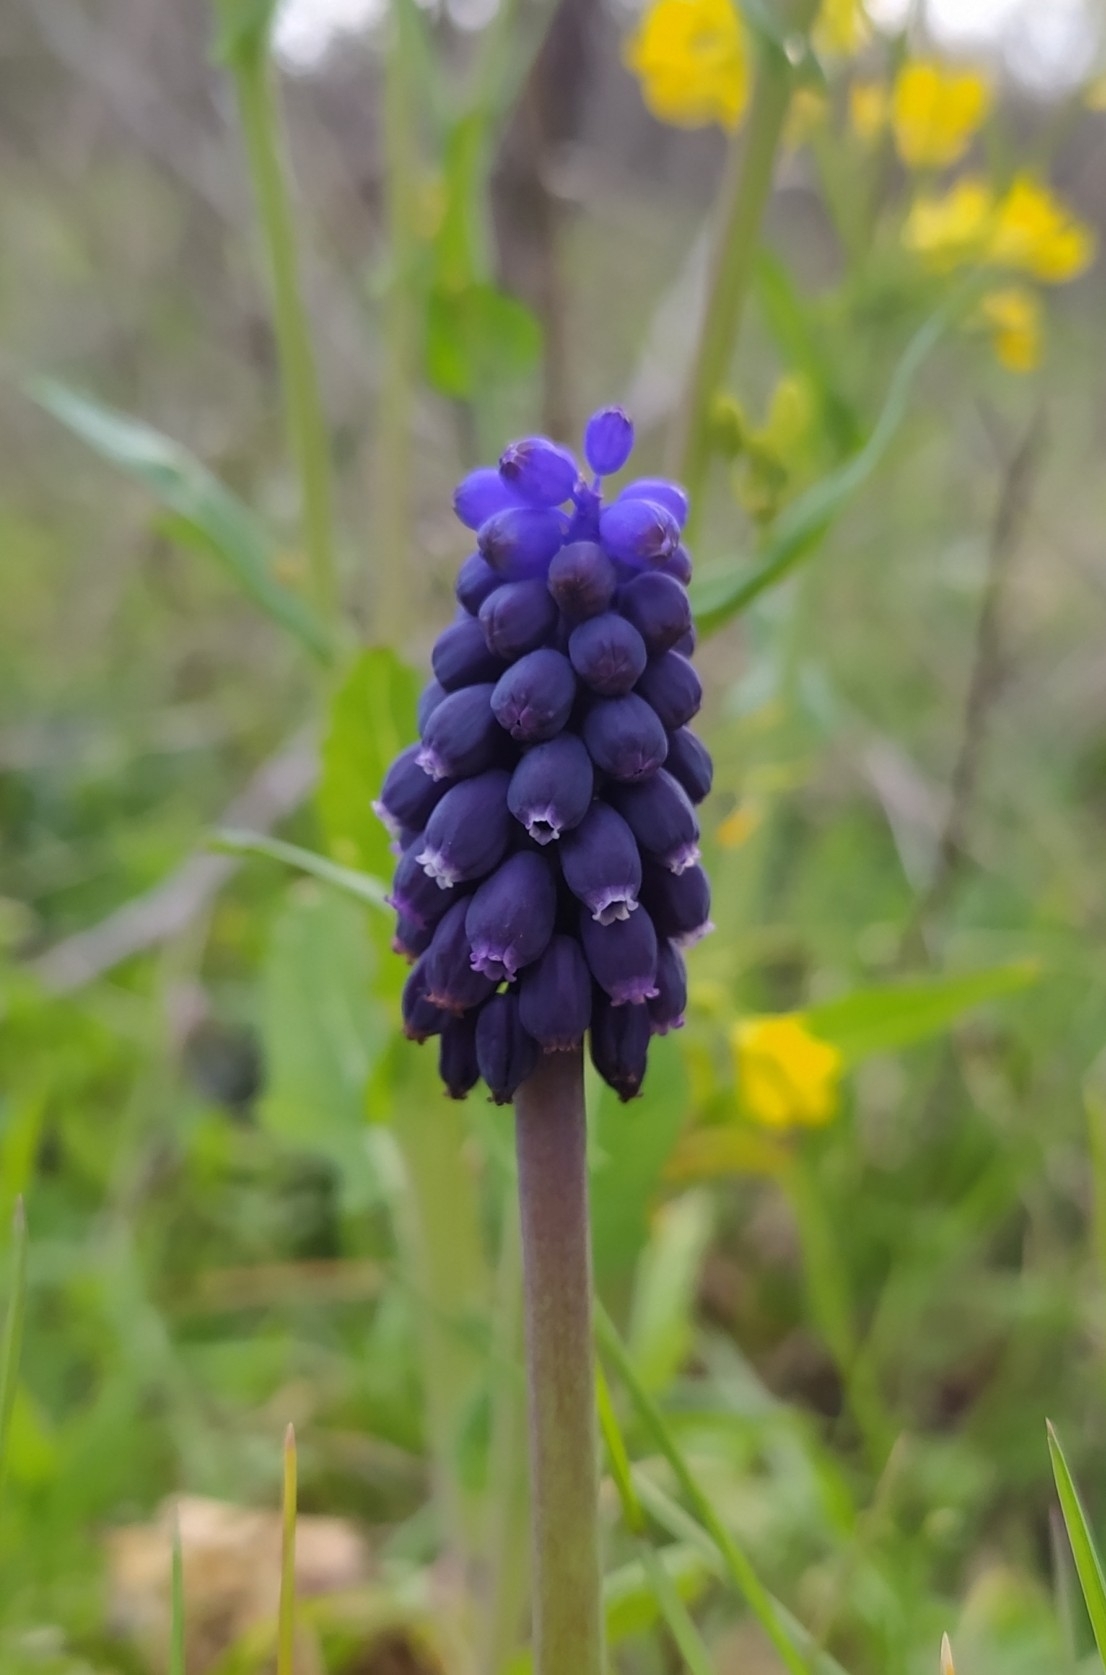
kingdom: Plantae
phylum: Tracheophyta
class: Liliopsida
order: Asparagales
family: Asparagaceae
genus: Muscari
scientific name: Muscari neglectum
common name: Grape-hyacinth
